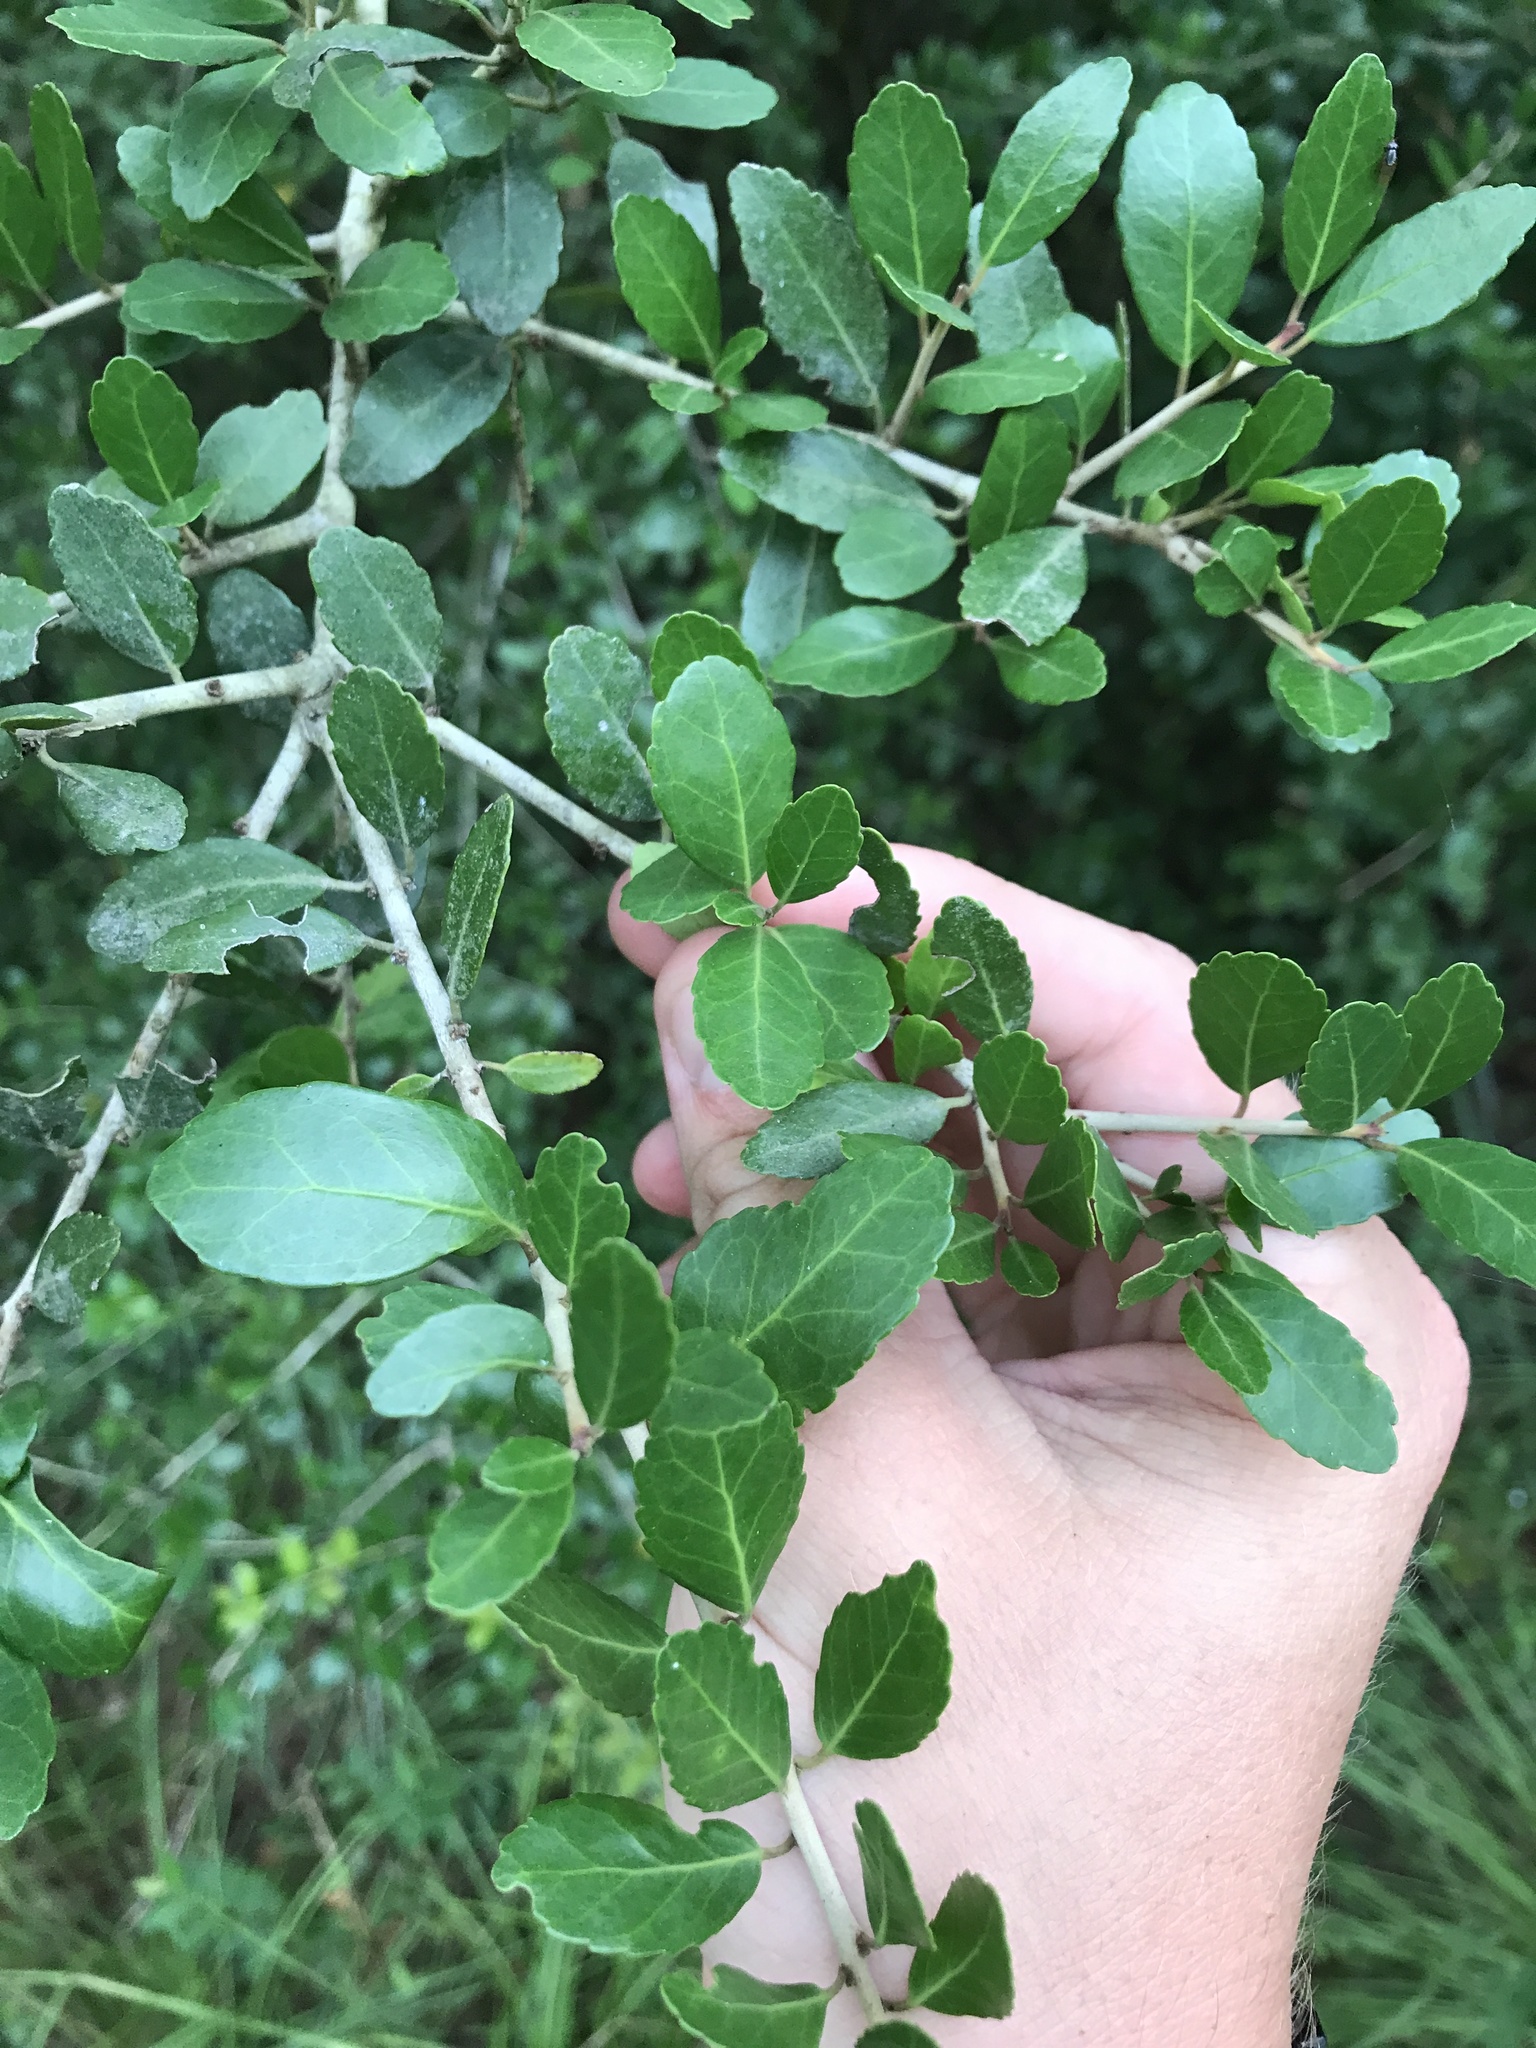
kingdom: Plantae
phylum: Tracheophyta
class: Magnoliopsida
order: Aquifoliales
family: Aquifoliaceae
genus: Ilex
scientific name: Ilex vomitoria
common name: Yaupon holly
